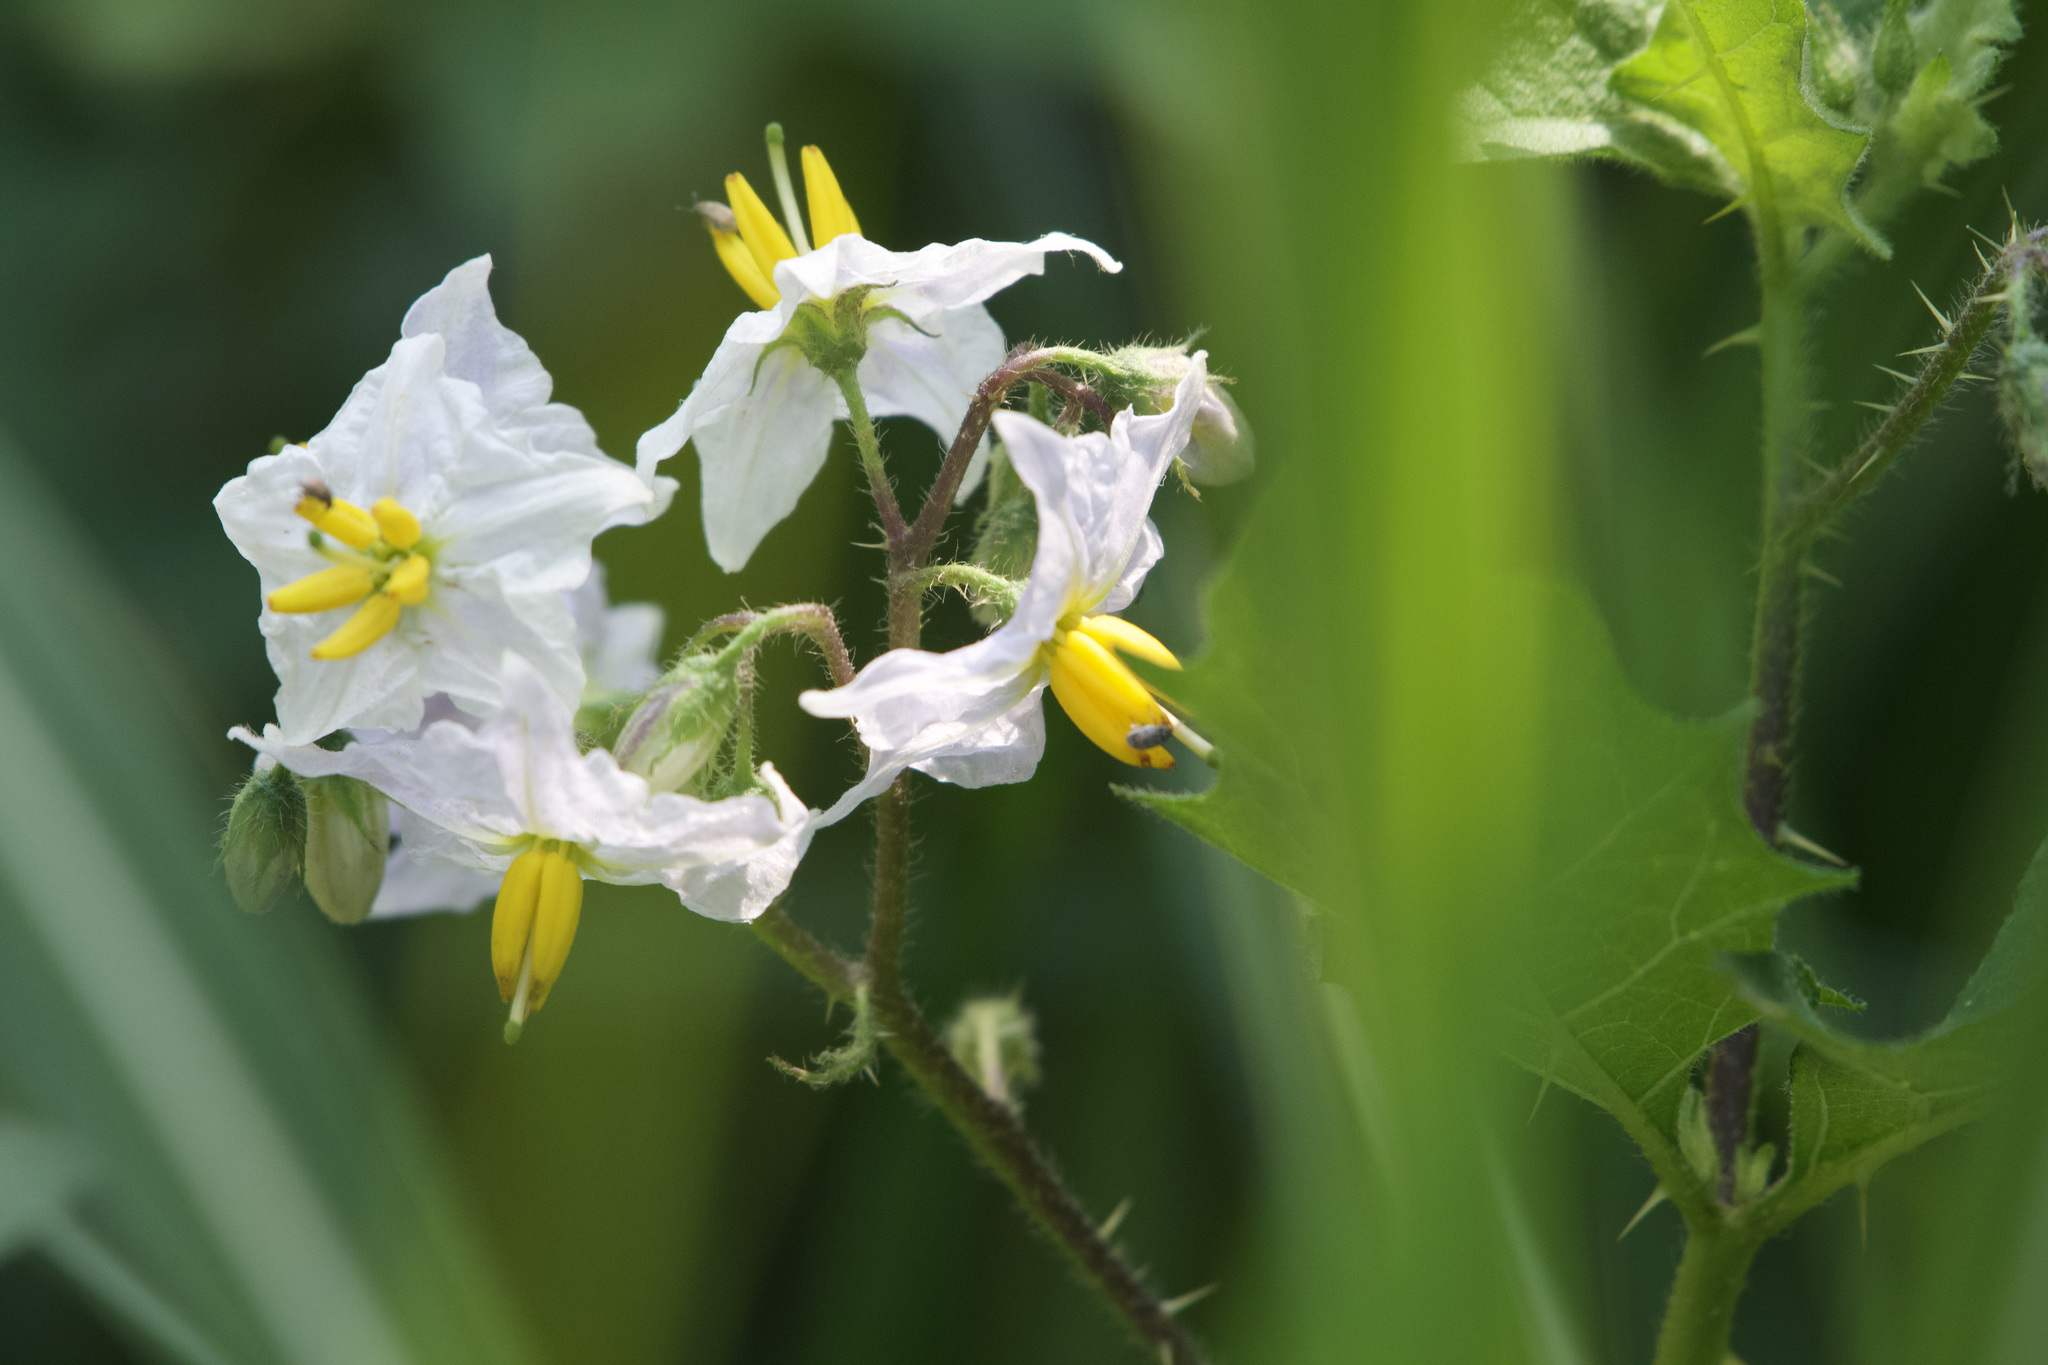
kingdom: Plantae
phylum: Tracheophyta
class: Magnoliopsida
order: Solanales
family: Solanaceae
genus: Solanum
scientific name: Solanum carolinense
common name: Horse-nettle
